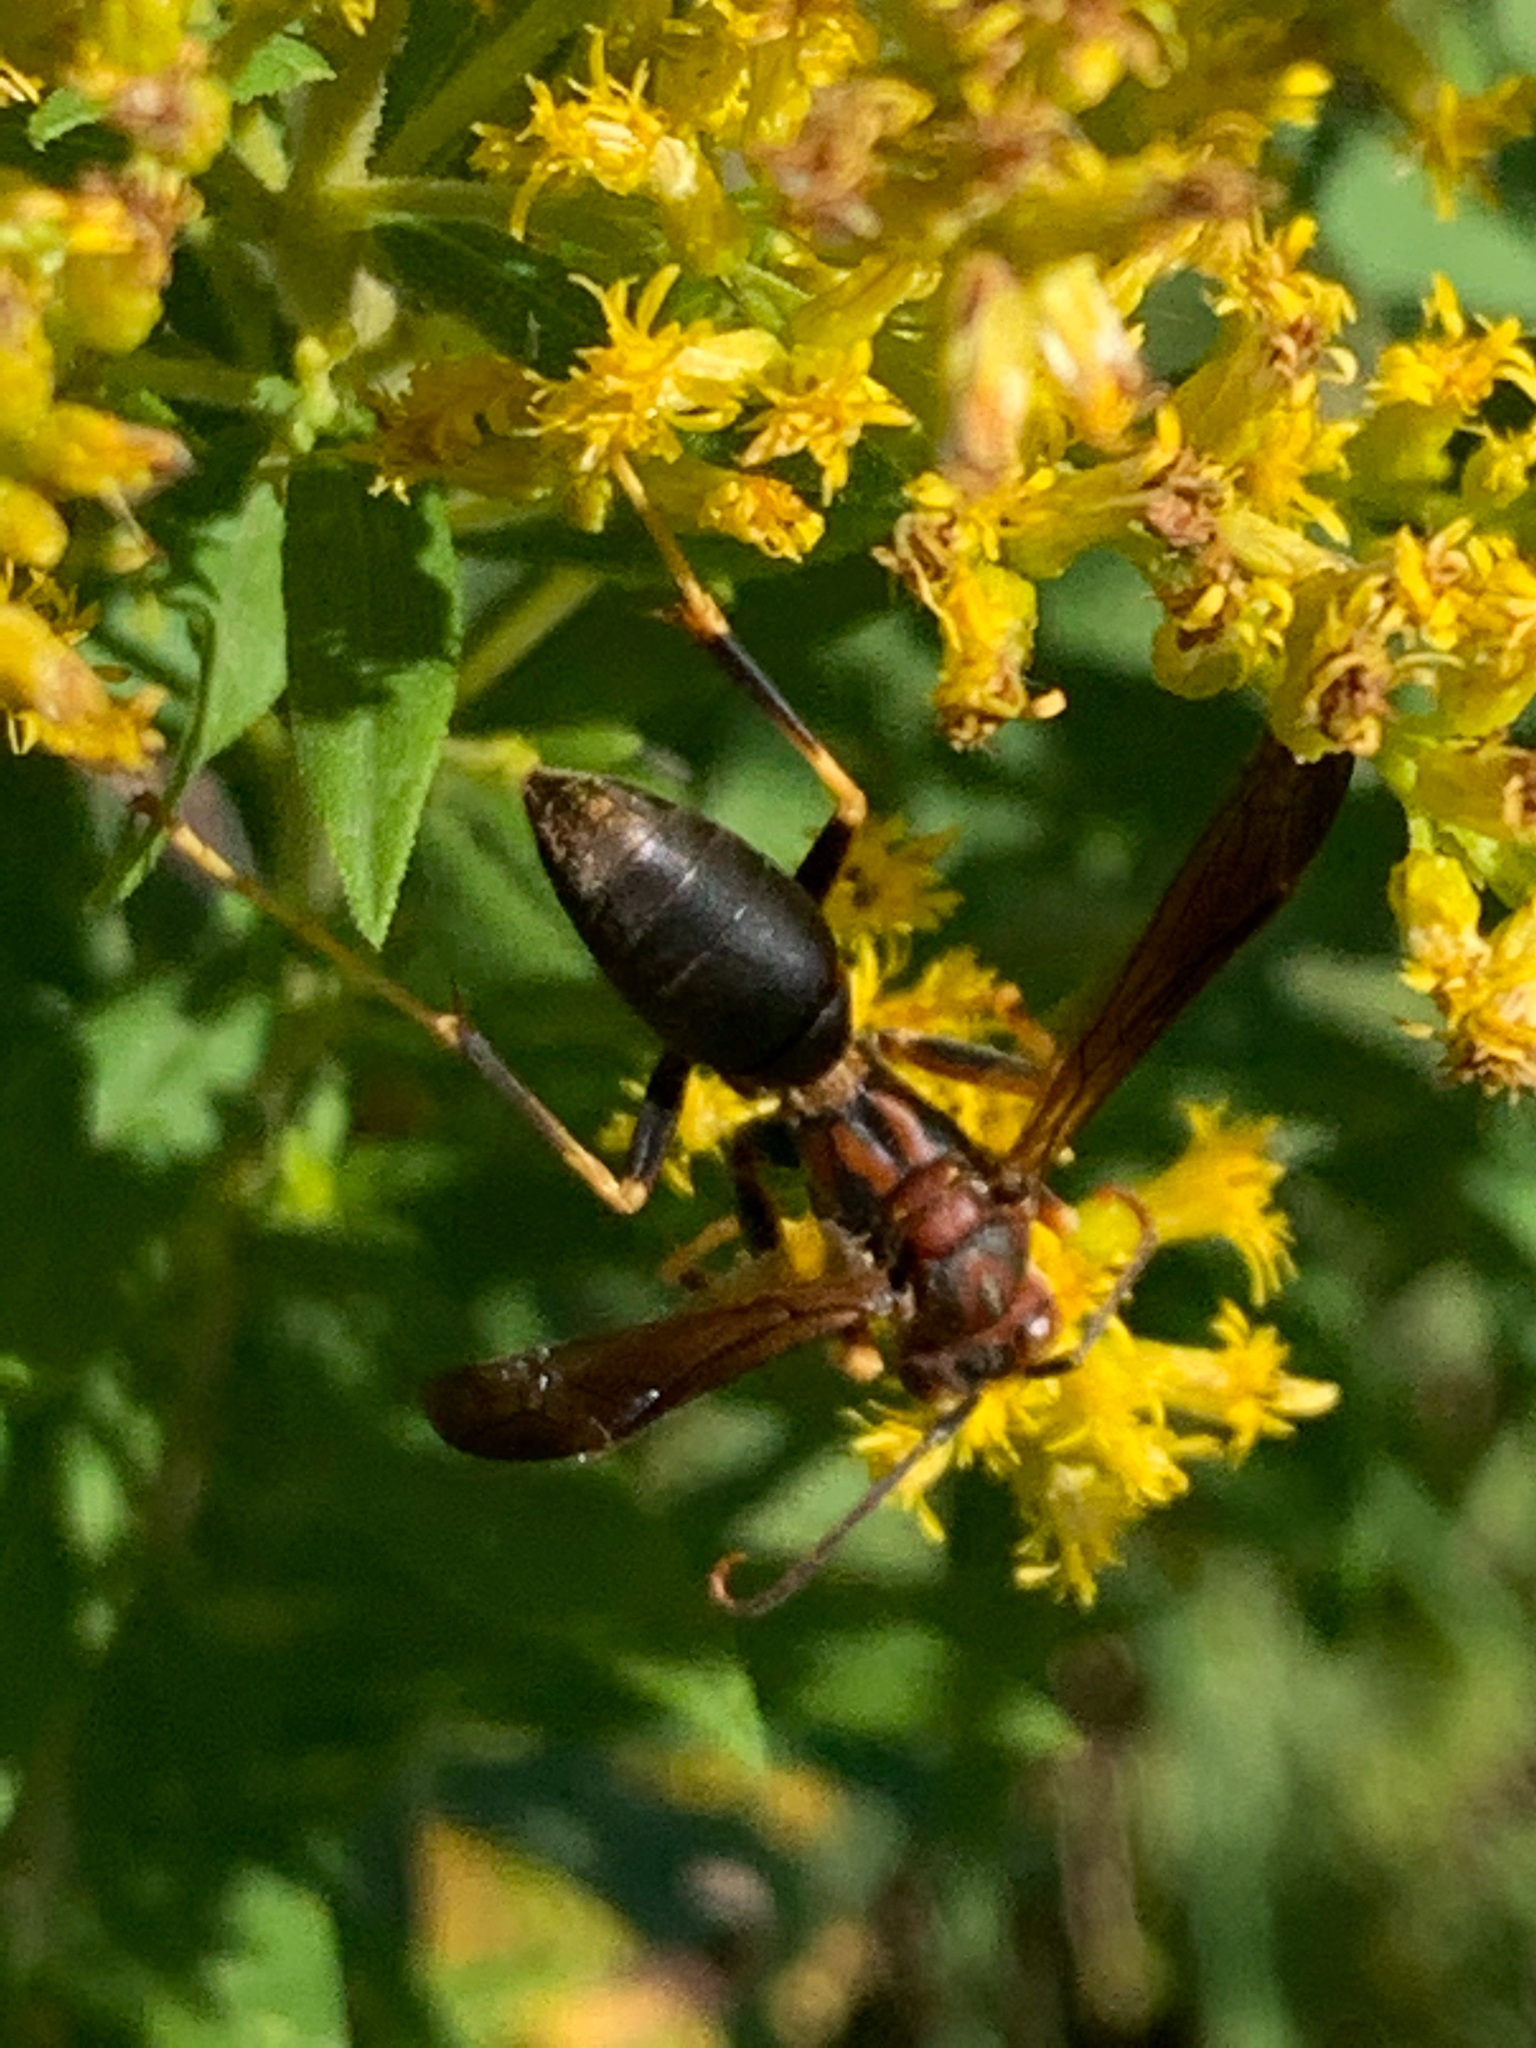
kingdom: Animalia
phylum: Arthropoda
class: Insecta
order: Hymenoptera
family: Eumenidae
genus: Polistes
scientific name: Polistes metricus
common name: Metric paper wasp
